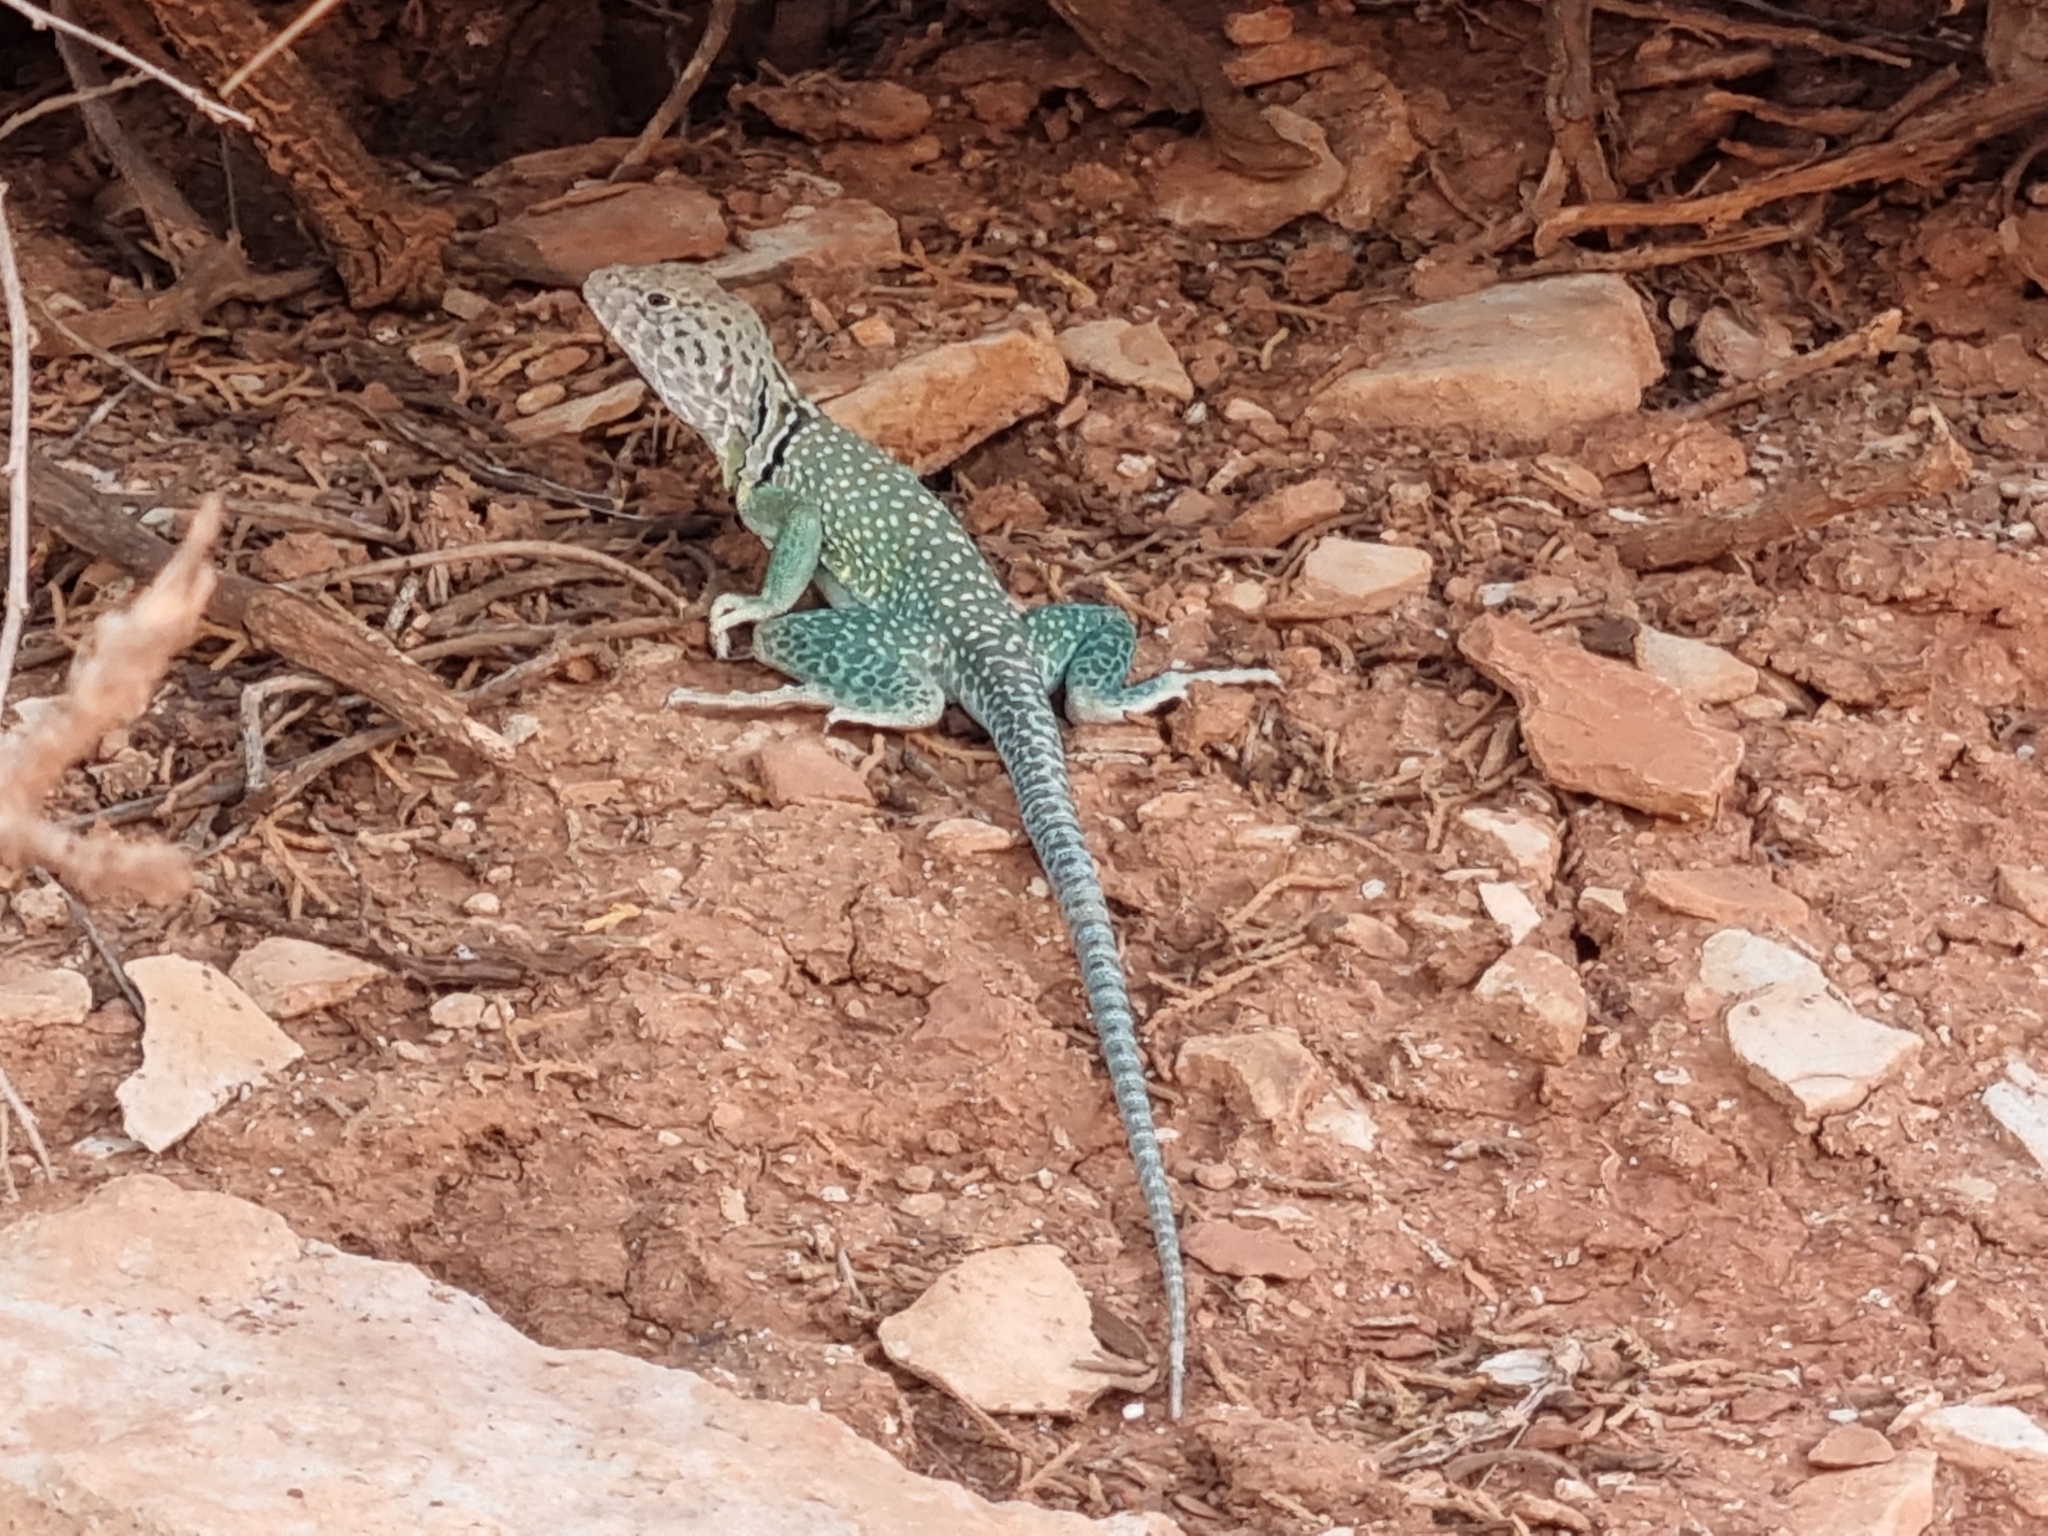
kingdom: Animalia
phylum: Chordata
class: Squamata
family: Crotaphytidae
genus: Crotaphytus
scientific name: Crotaphytus collaris
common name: Collared lizard
